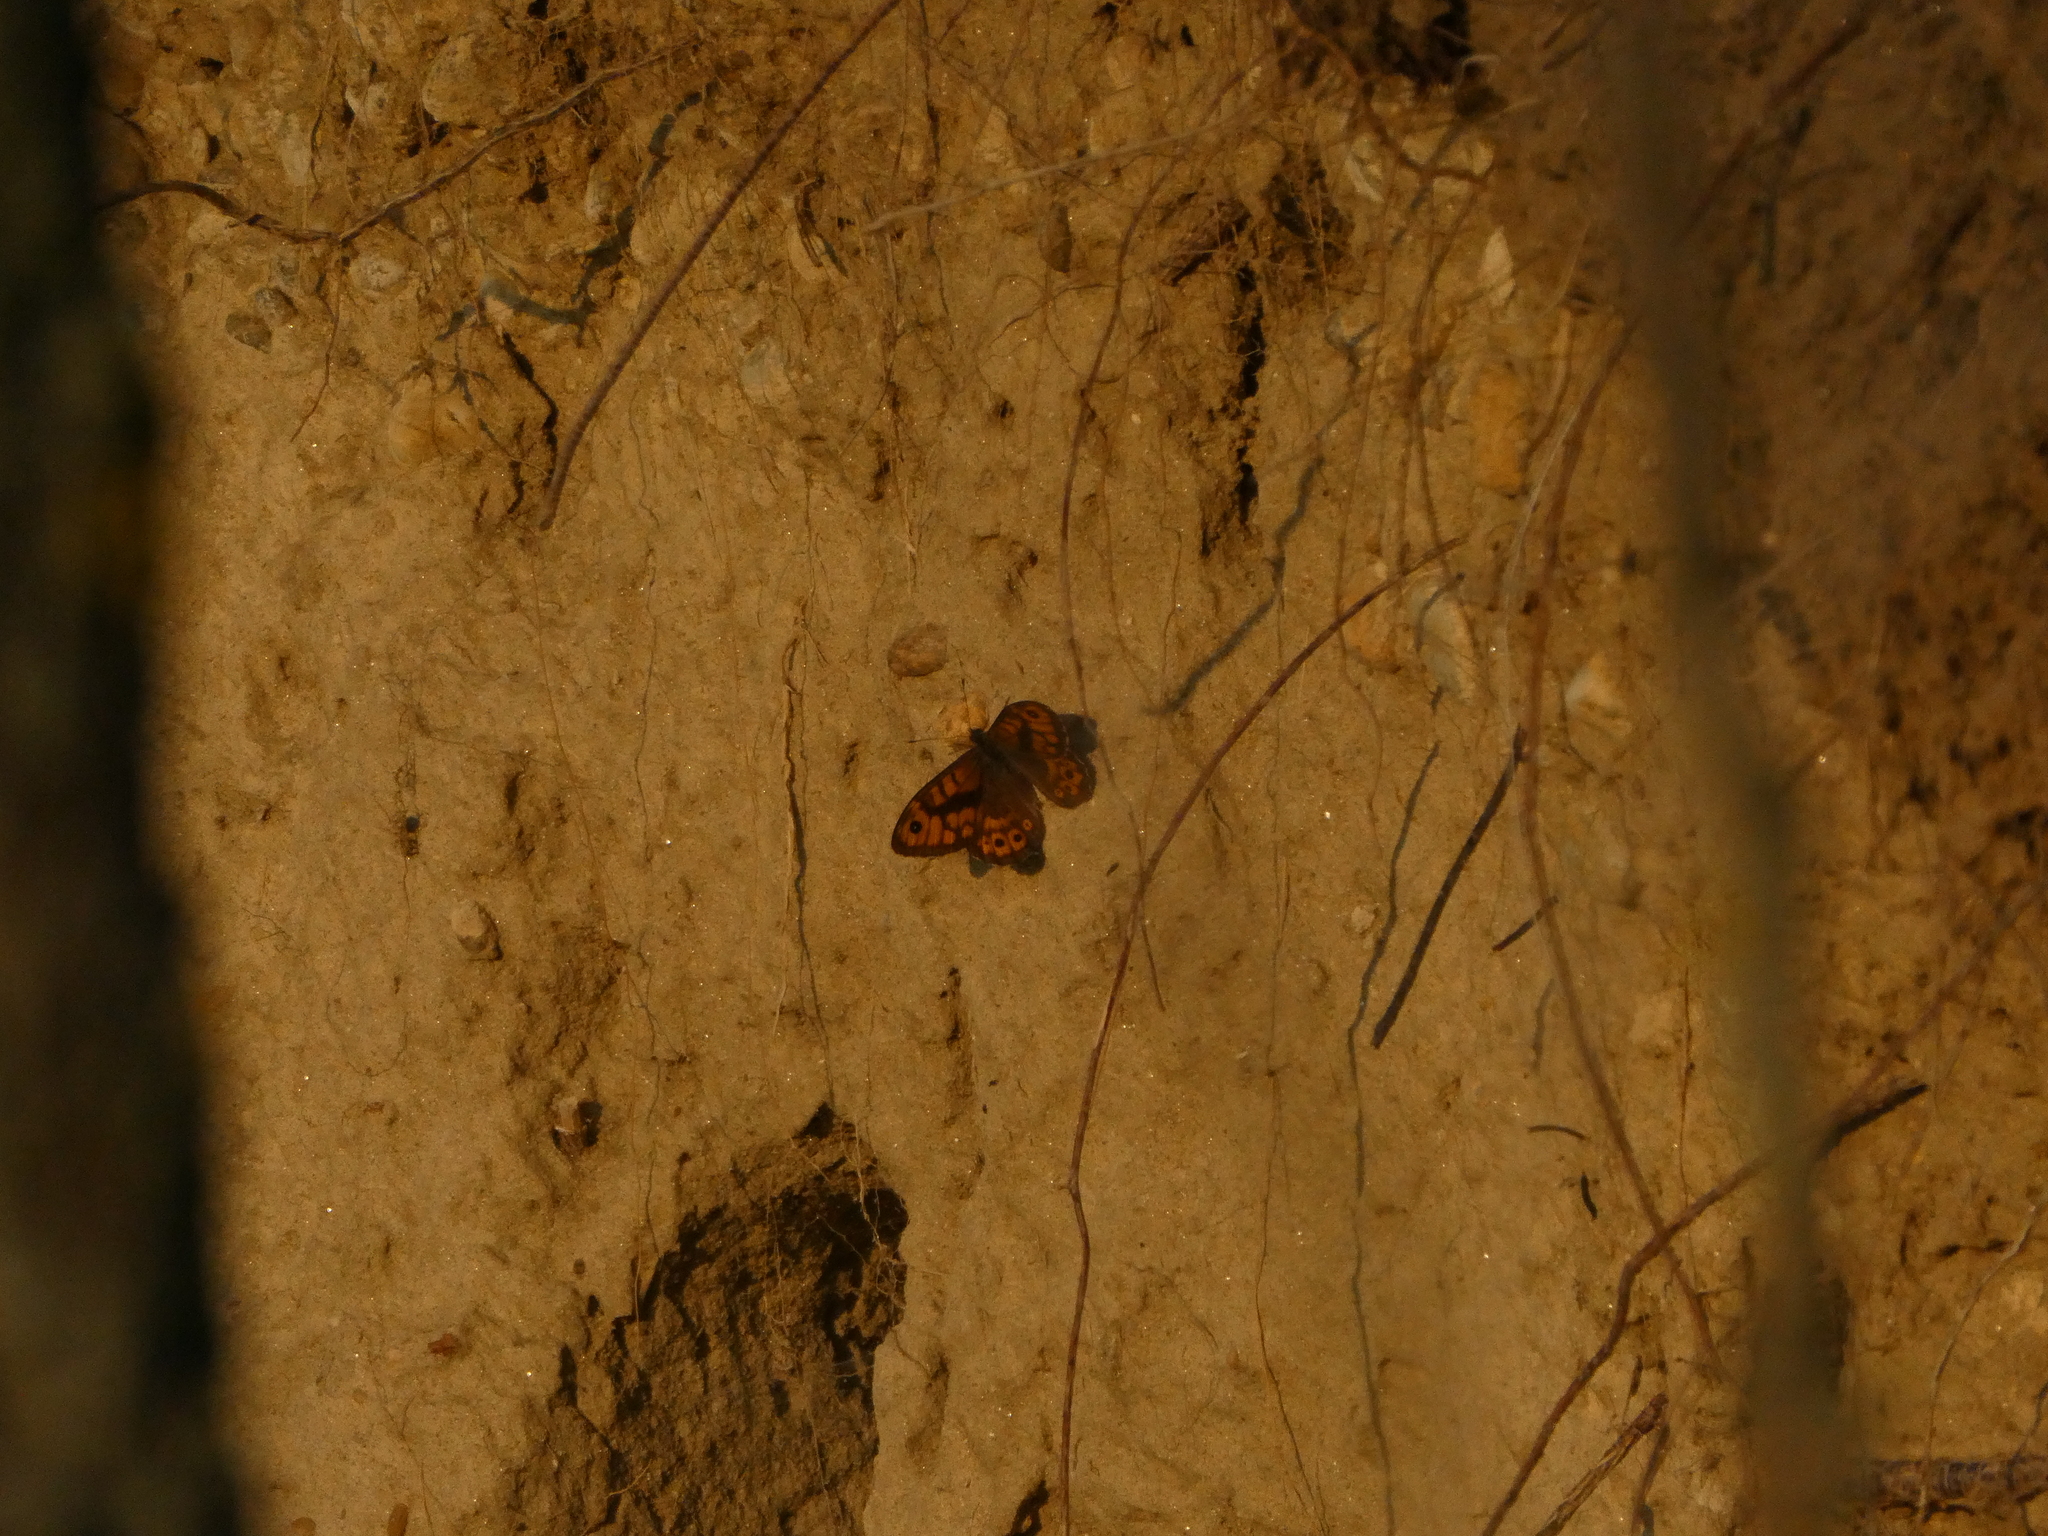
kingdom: Animalia
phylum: Arthropoda
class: Insecta
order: Lepidoptera
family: Nymphalidae
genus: Pararge
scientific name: Pararge Lasiommata megera
